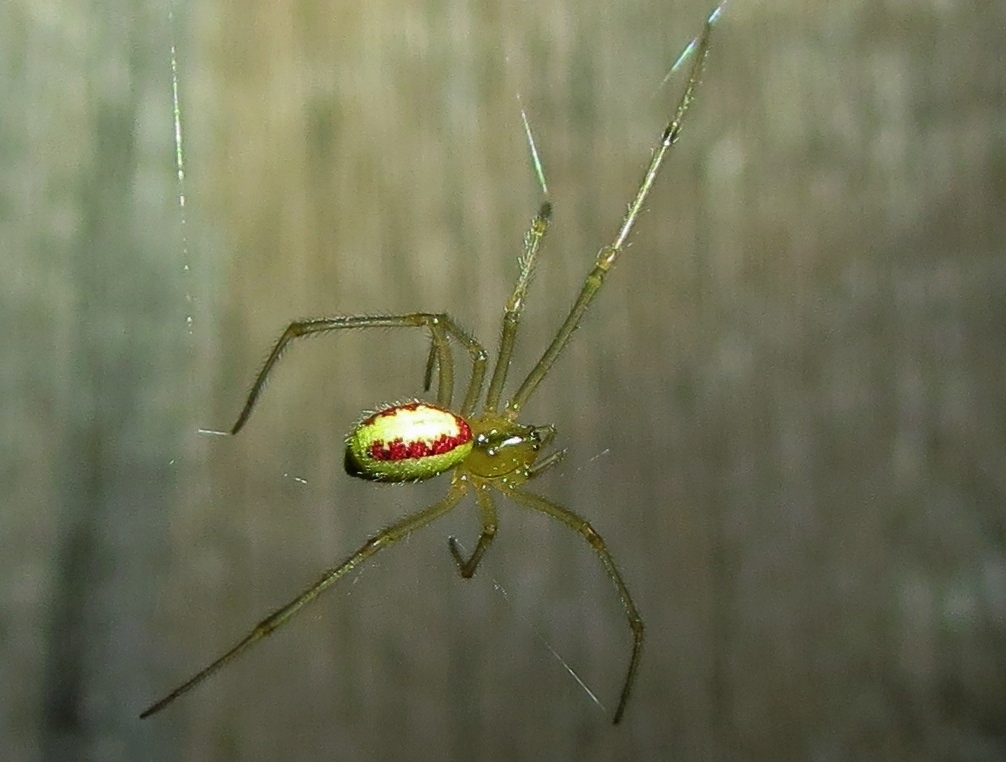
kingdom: Animalia
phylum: Arthropoda
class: Arachnida
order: Araneae
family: Theridiidae
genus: Enoplognatha
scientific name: Enoplognatha ovata
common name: Common candy-striped spider
